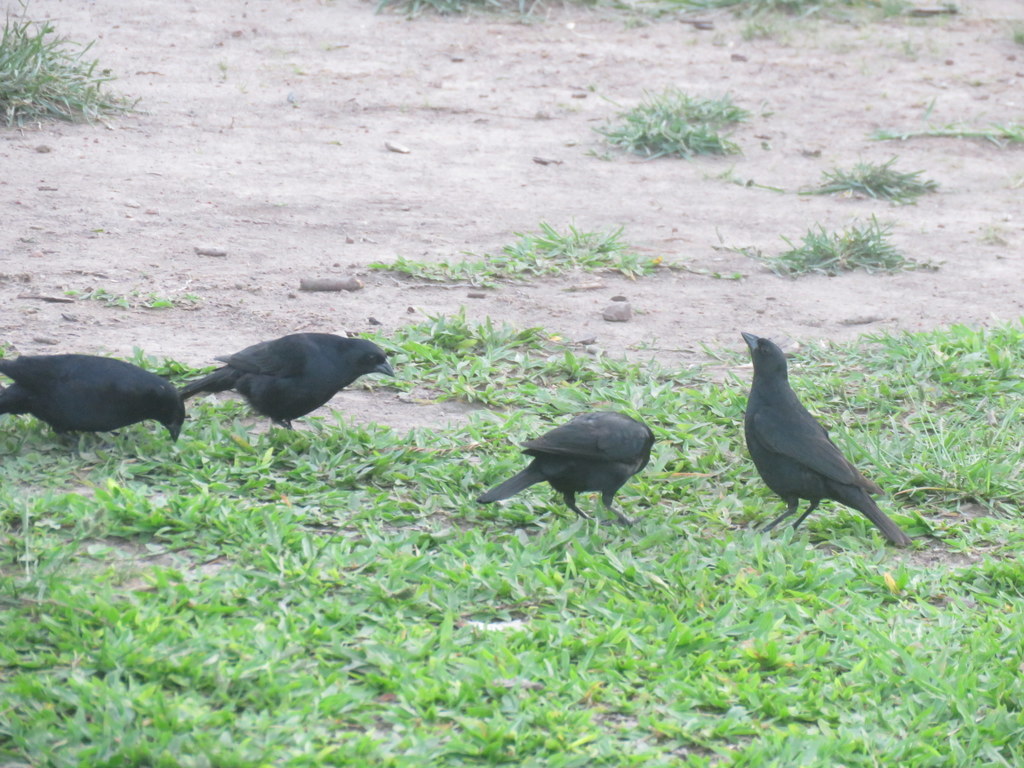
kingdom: Animalia
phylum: Chordata
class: Aves
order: Passeriformes
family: Icteridae
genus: Molothrus
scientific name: Molothrus rufoaxillaris
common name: Screaming cowbird
